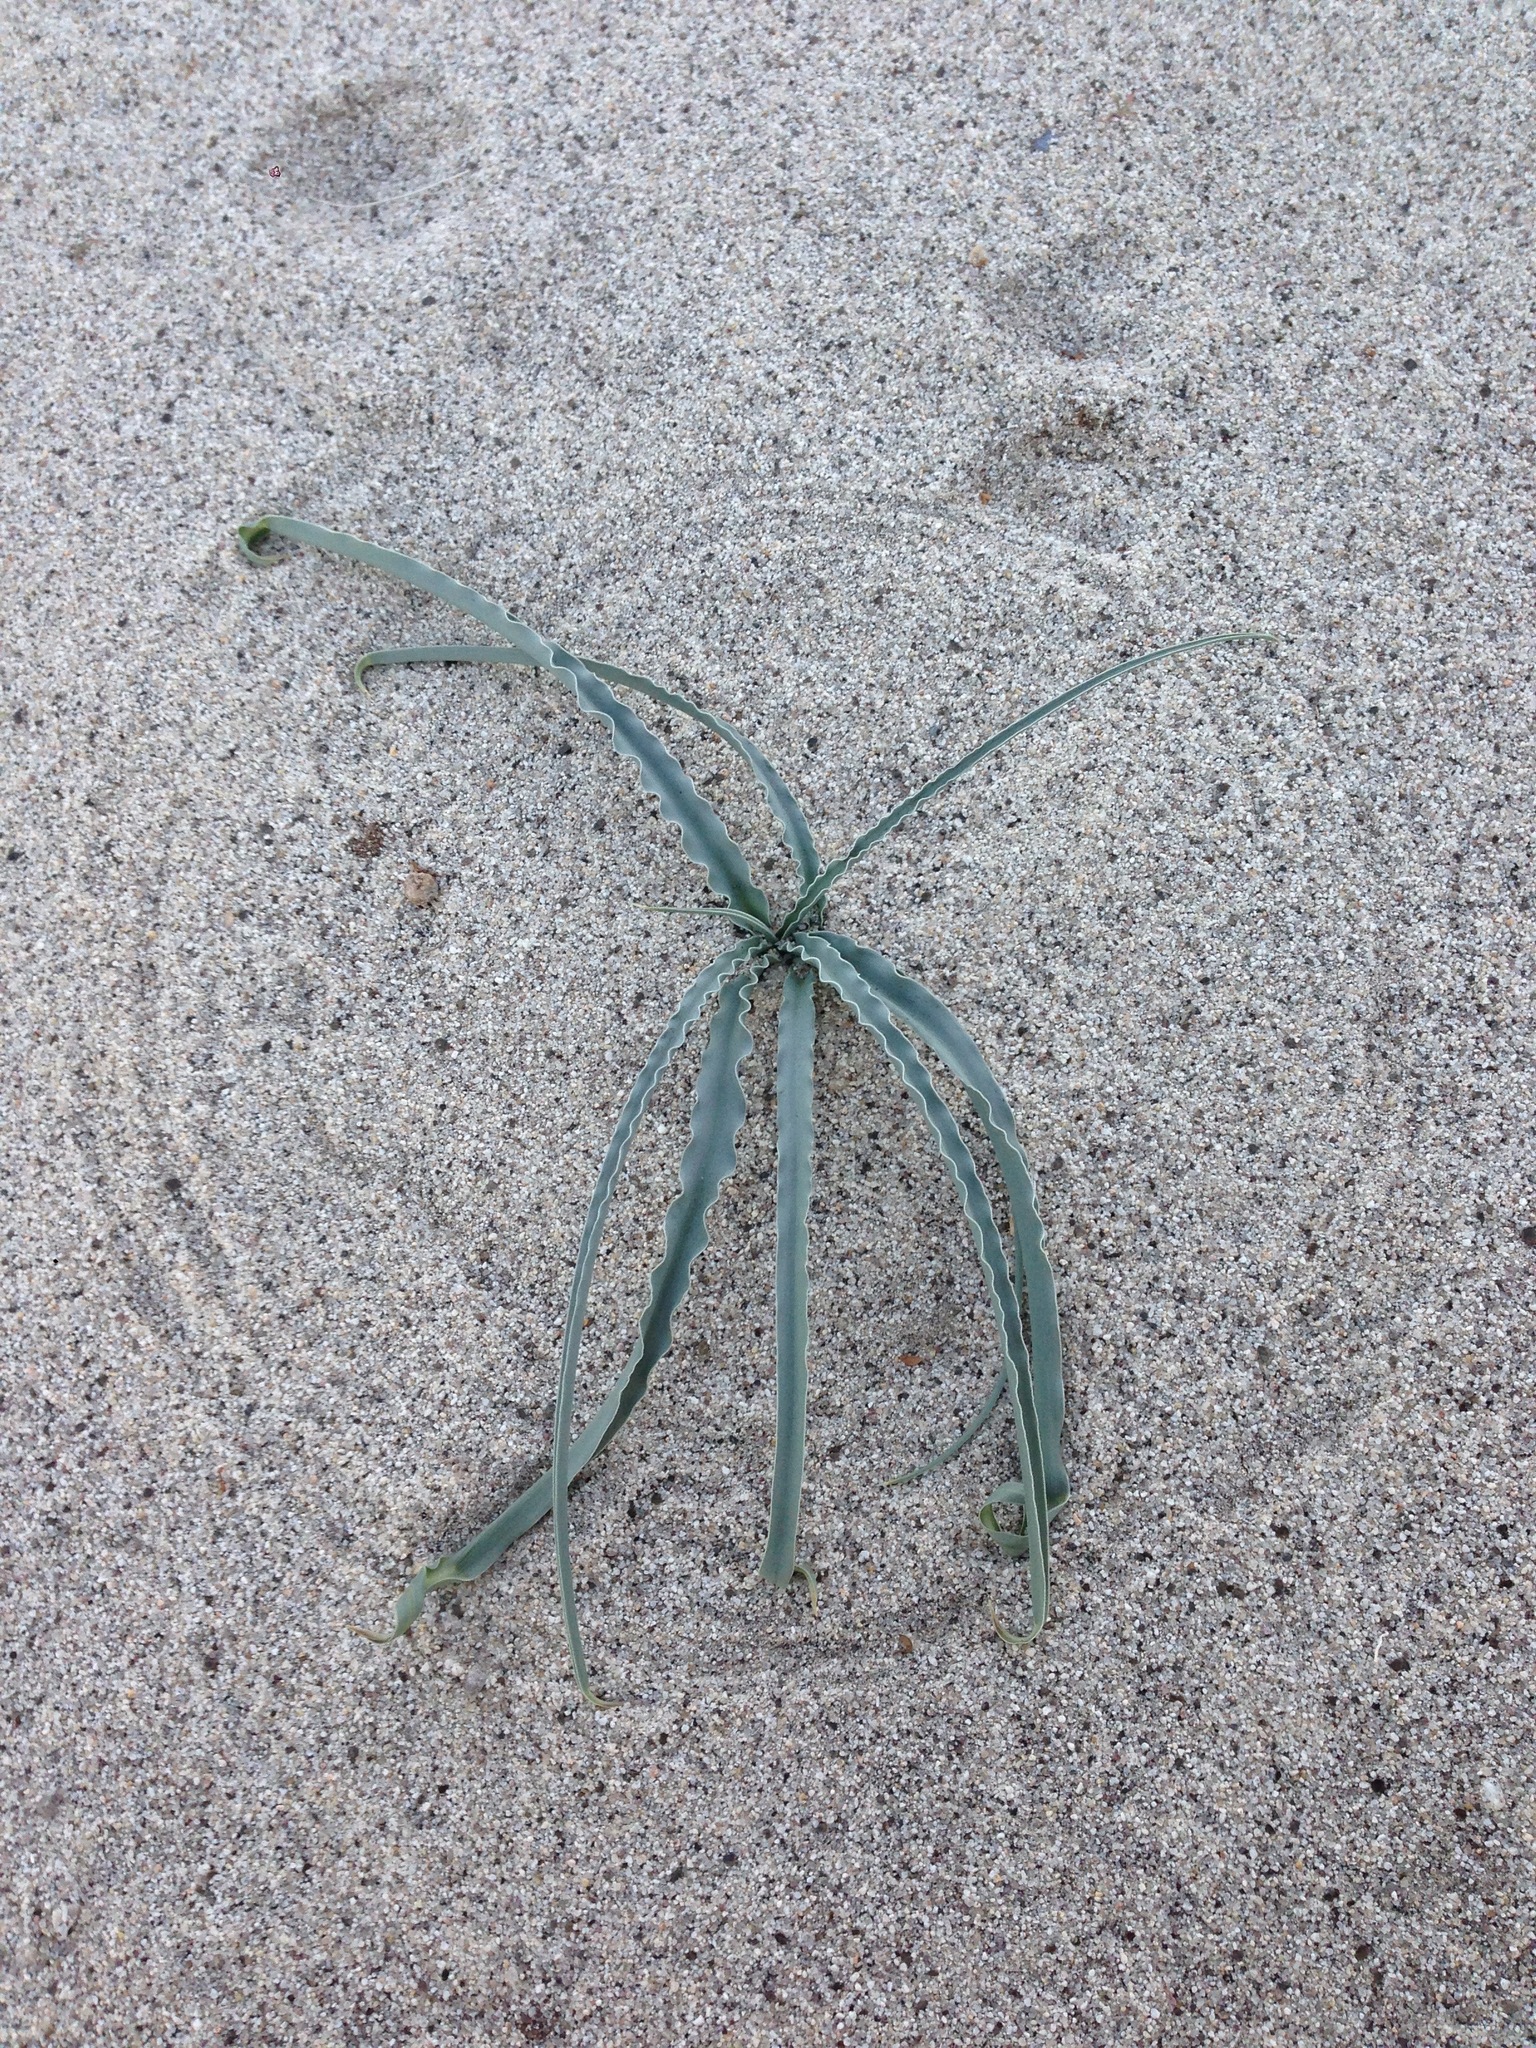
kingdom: Plantae
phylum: Tracheophyta
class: Liliopsida
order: Asparagales
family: Asparagaceae
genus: Hesperocallis
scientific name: Hesperocallis undulata
